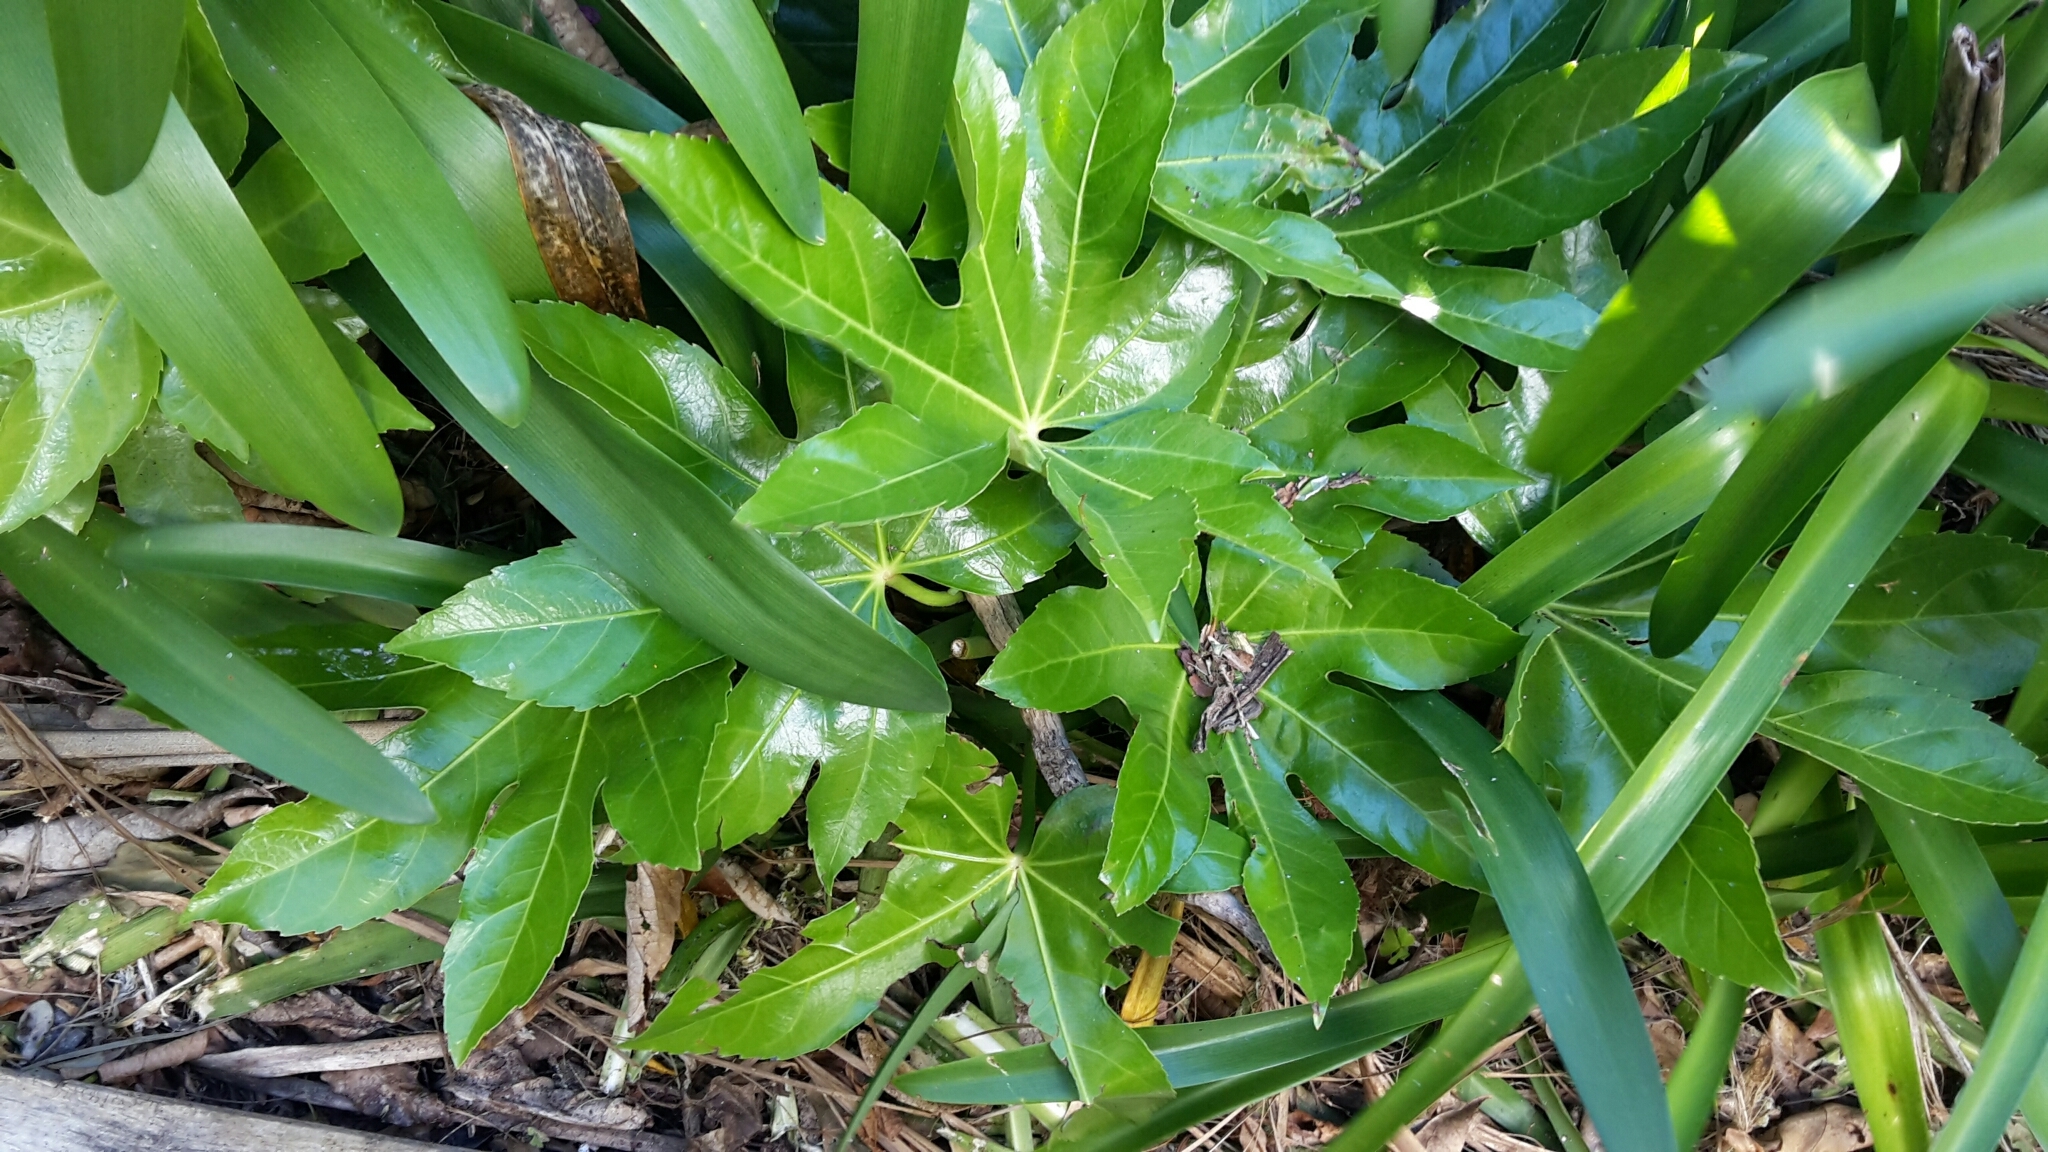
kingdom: Plantae
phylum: Tracheophyta
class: Magnoliopsida
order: Apiales
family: Araliaceae
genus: Fatsia
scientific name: Fatsia japonica
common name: Fatsia
